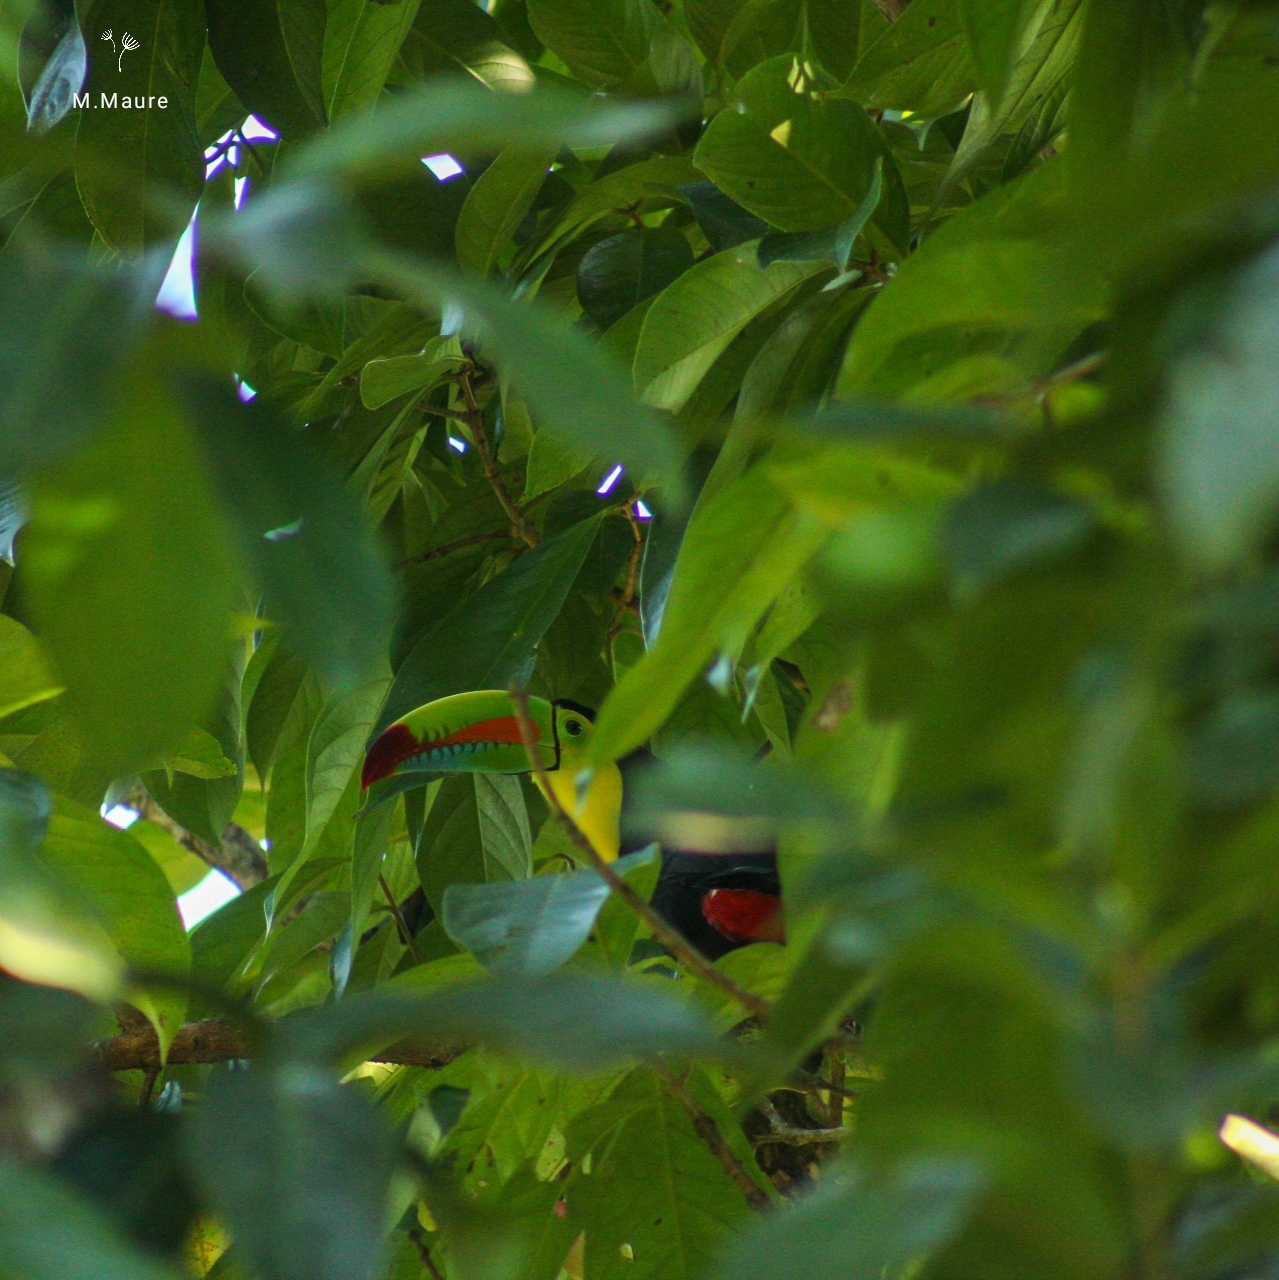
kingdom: Animalia
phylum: Chordata
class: Aves
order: Piciformes
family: Ramphastidae
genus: Ramphastos
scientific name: Ramphastos sulfuratus
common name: Keel-billed toucan
